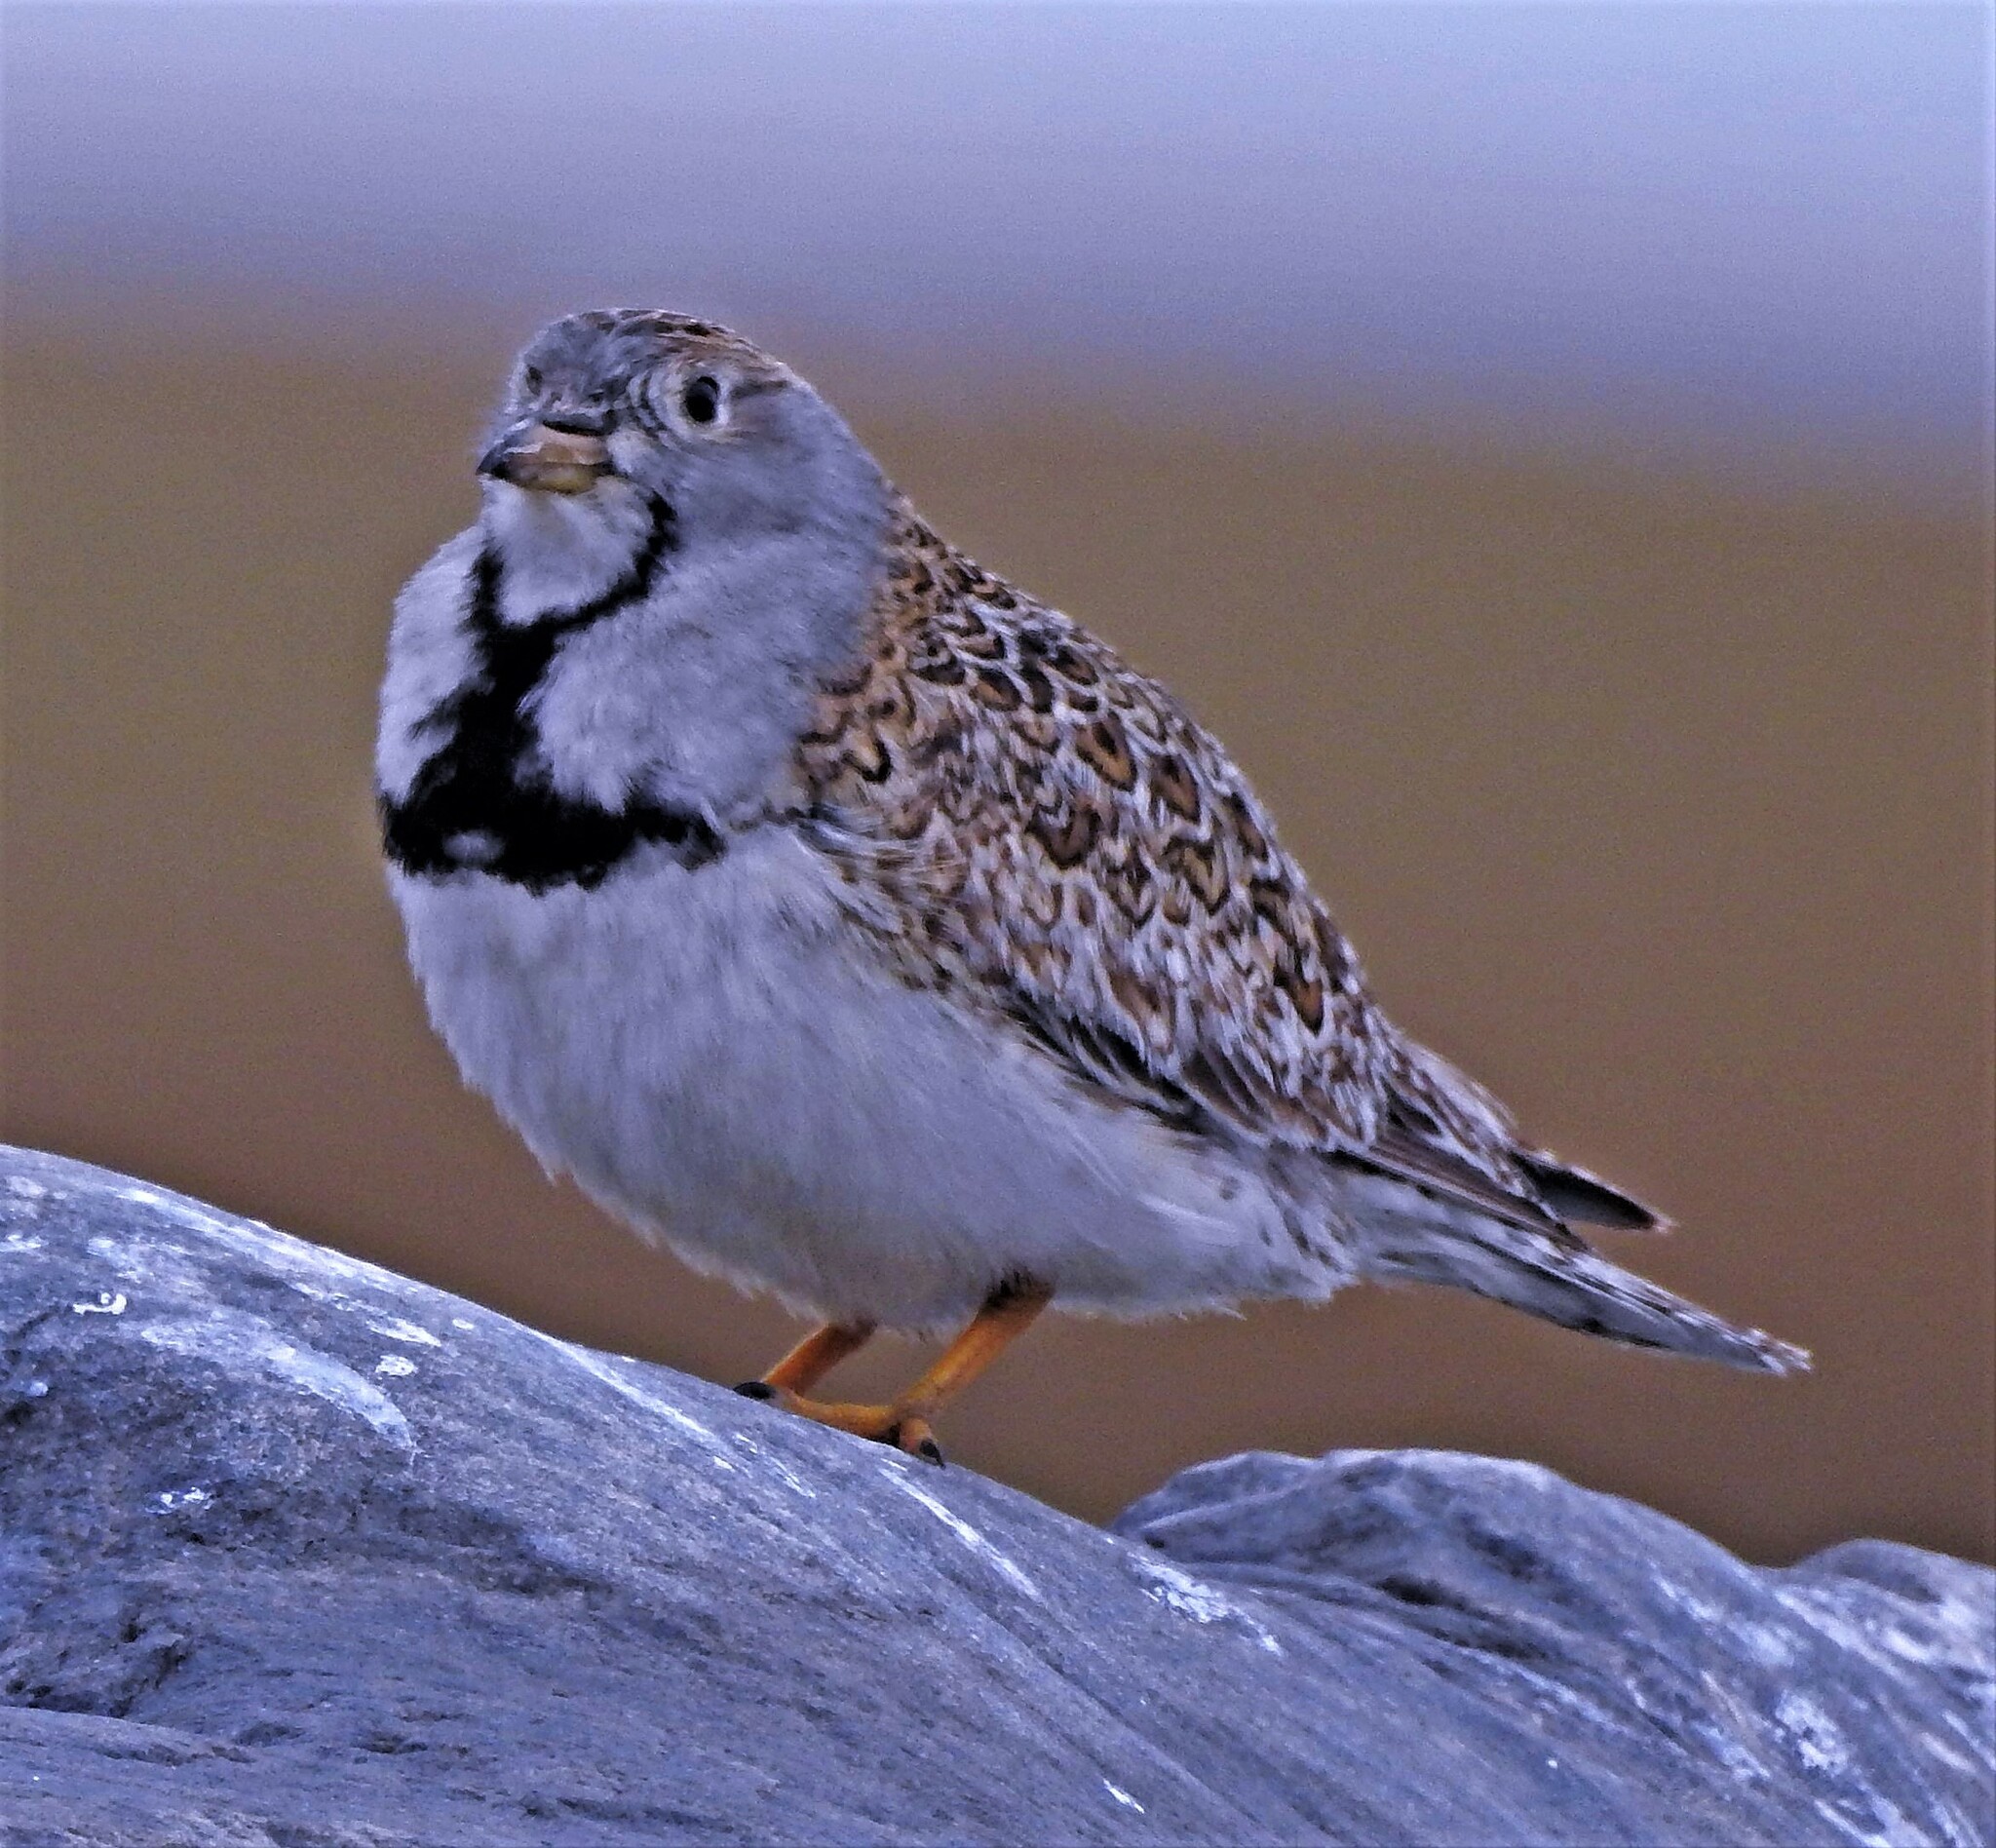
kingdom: Animalia
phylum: Chordata
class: Aves
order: Charadriiformes
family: Thinocoridae
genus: Thinocorus
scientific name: Thinocorus rumicivorus
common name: Least seedsnipe
